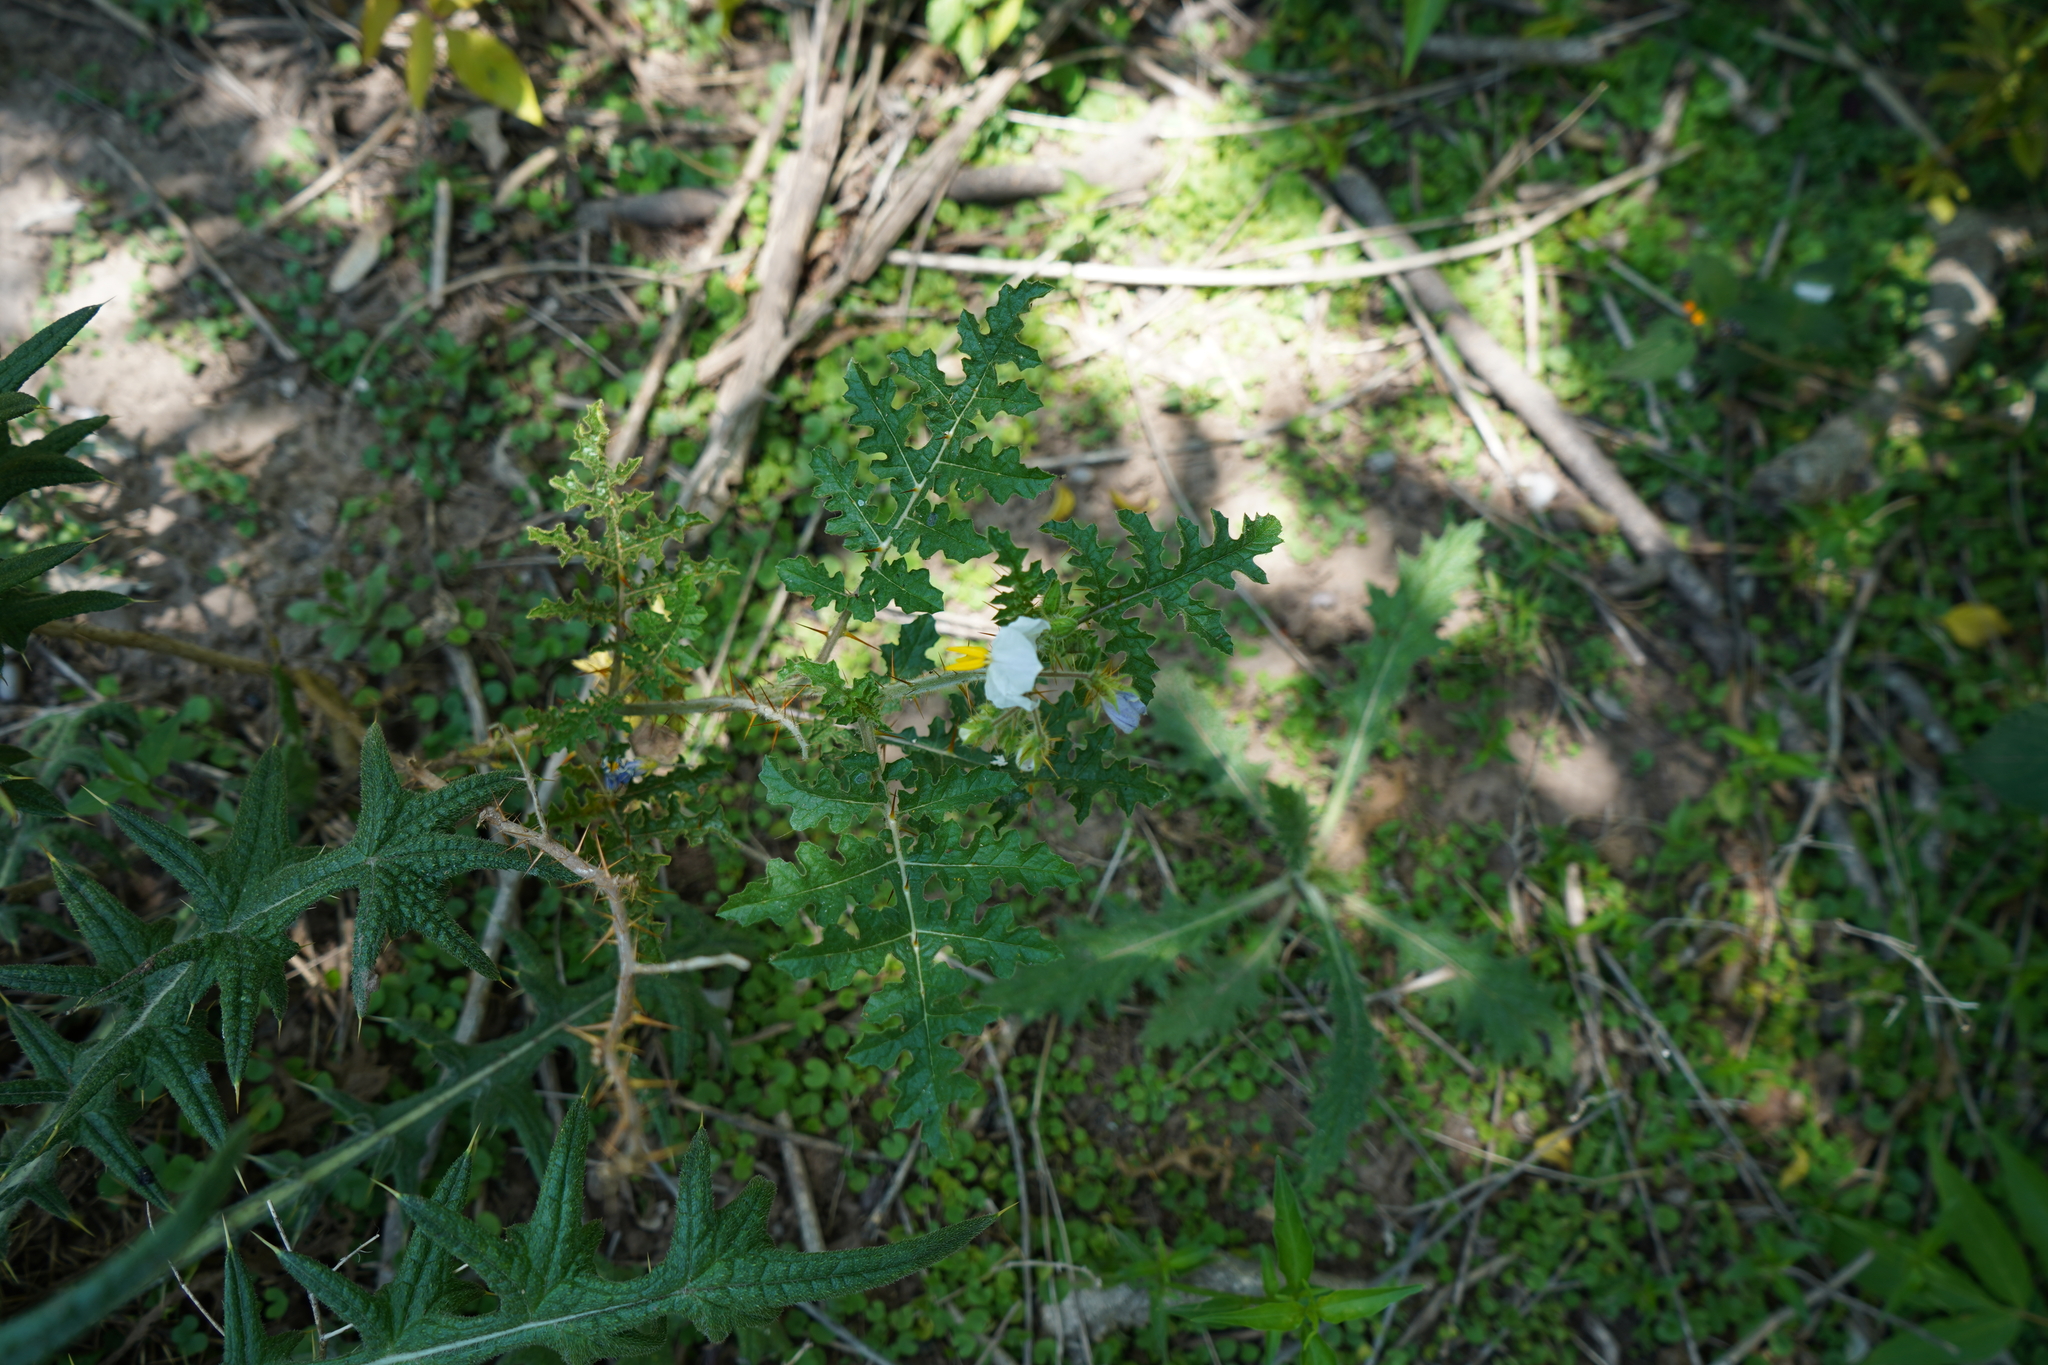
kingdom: Plantae
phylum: Tracheophyta
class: Magnoliopsida
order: Solanales
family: Solanaceae
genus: Solanum
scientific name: Solanum sisymbriifolium
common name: Red buffalo-bur
